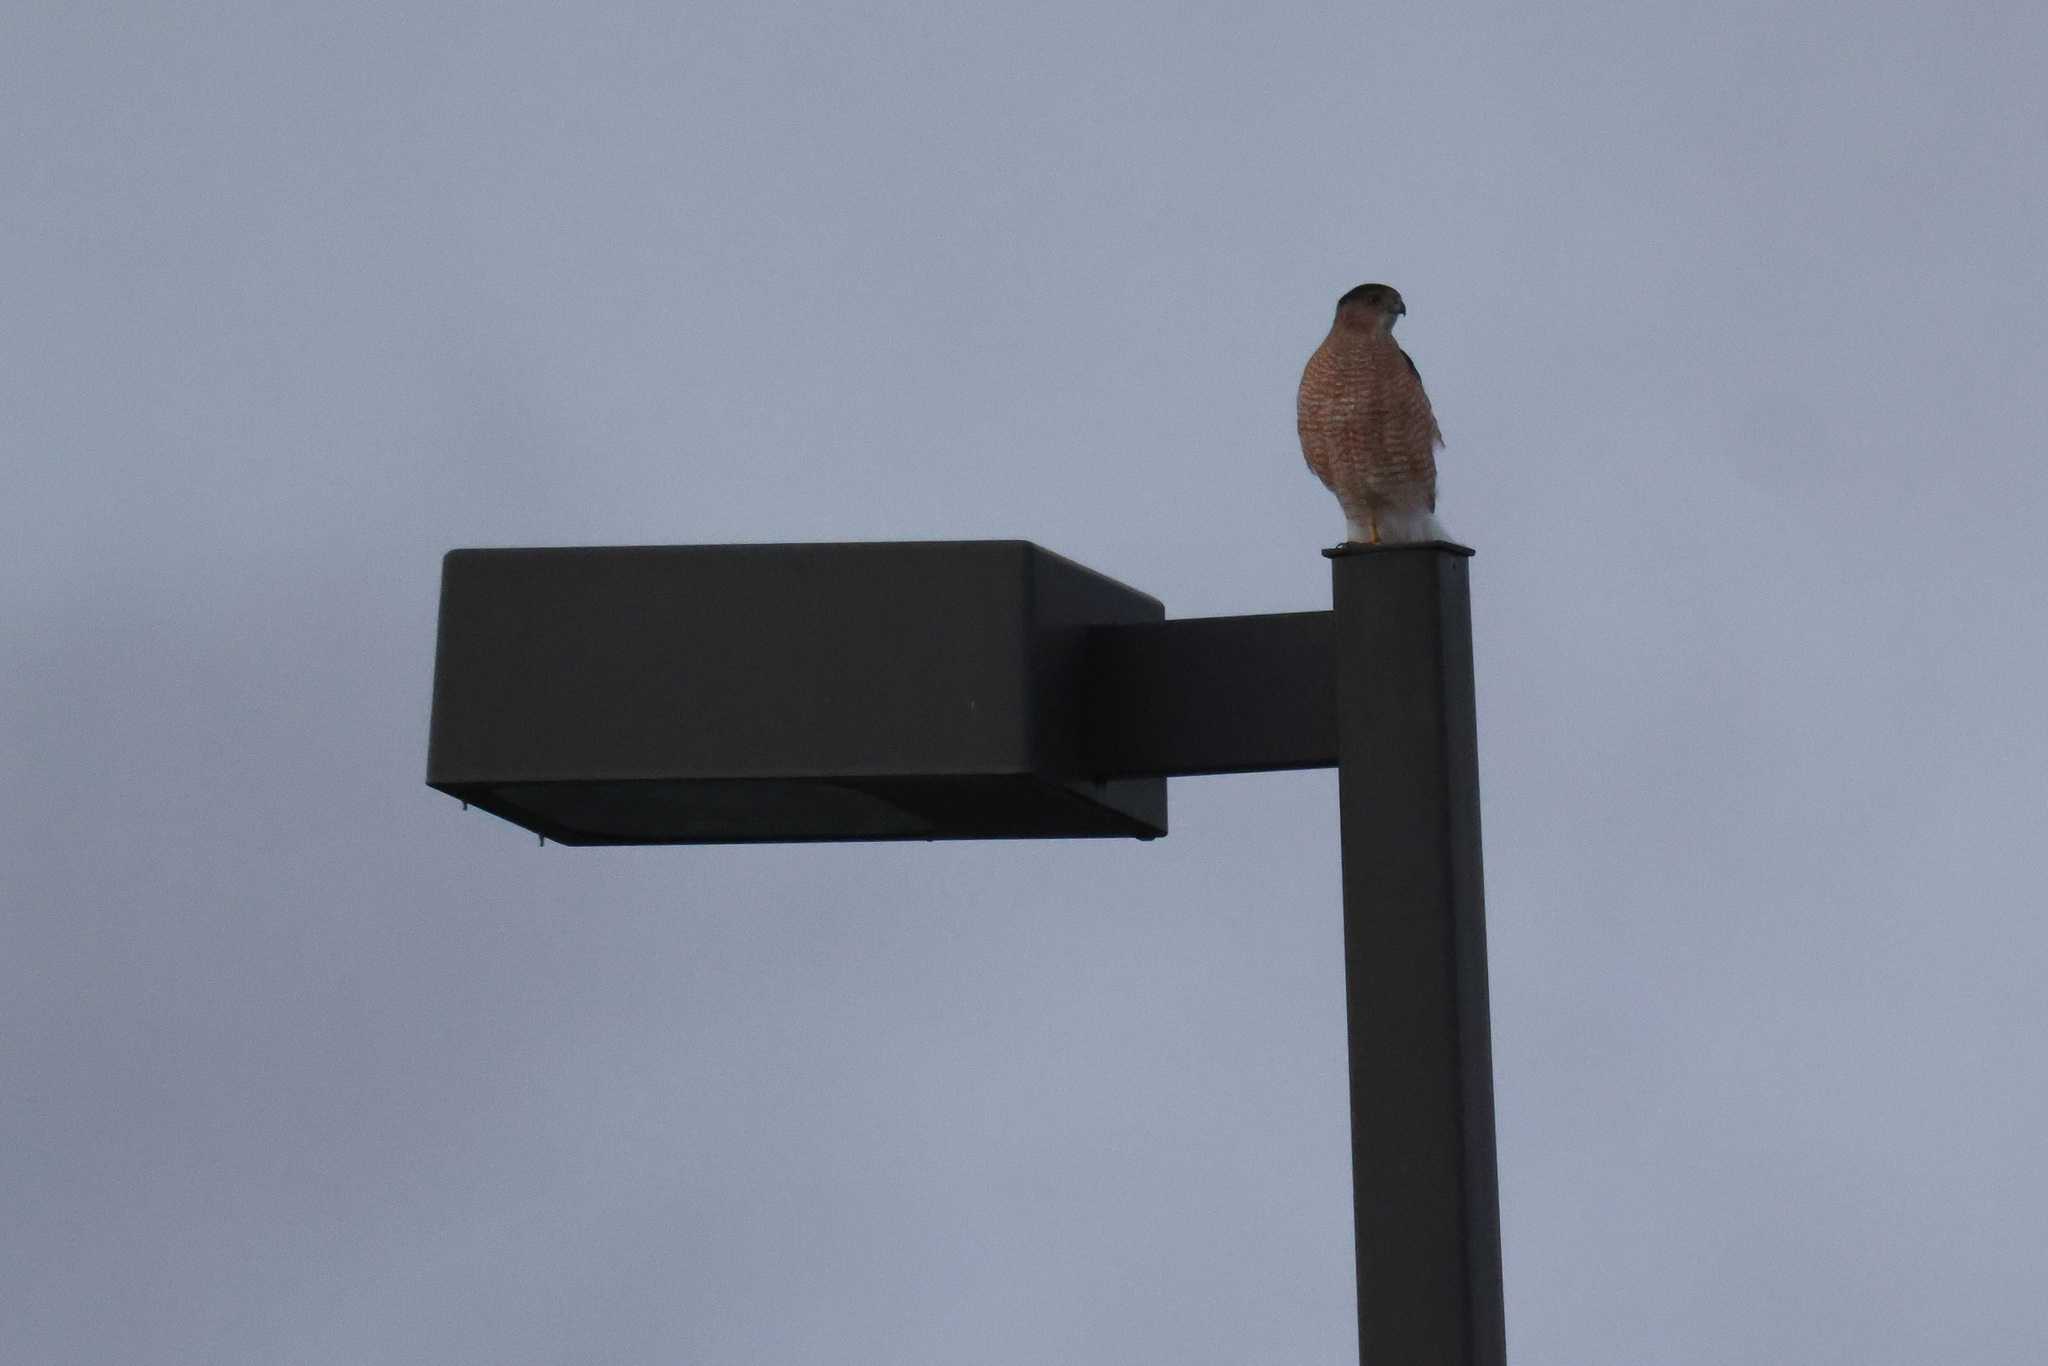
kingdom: Animalia
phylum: Chordata
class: Aves
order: Accipitriformes
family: Accipitridae
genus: Accipiter
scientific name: Accipiter cooperii
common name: Cooper's hawk
